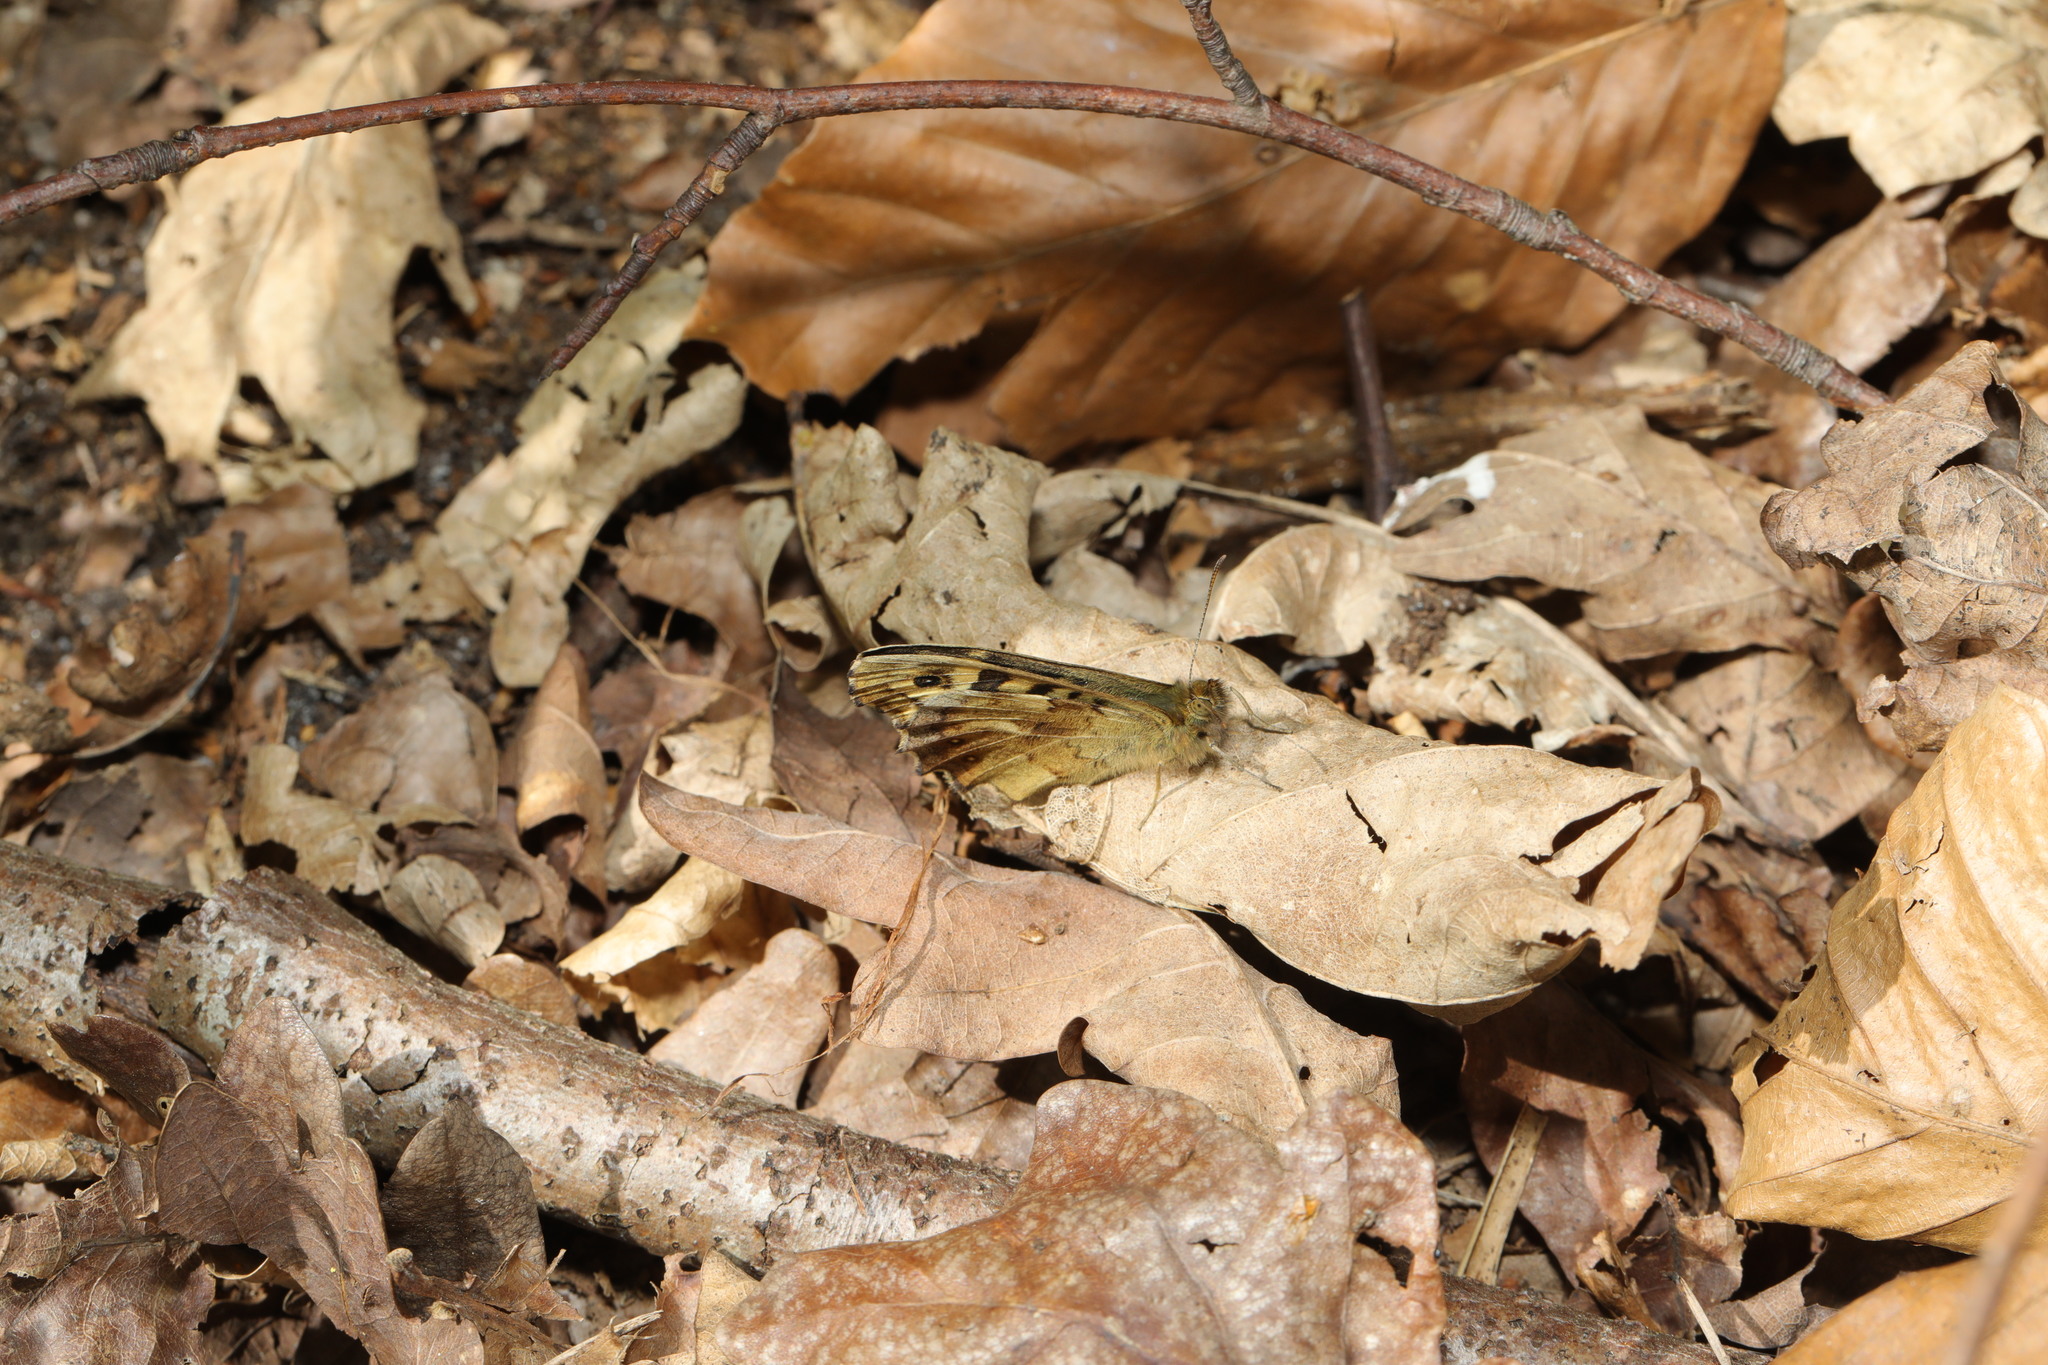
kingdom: Animalia
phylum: Arthropoda
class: Insecta
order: Lepidoptera
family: Nymphalidae
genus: Pararge
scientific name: Pararge aegeria
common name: Speckled wood
